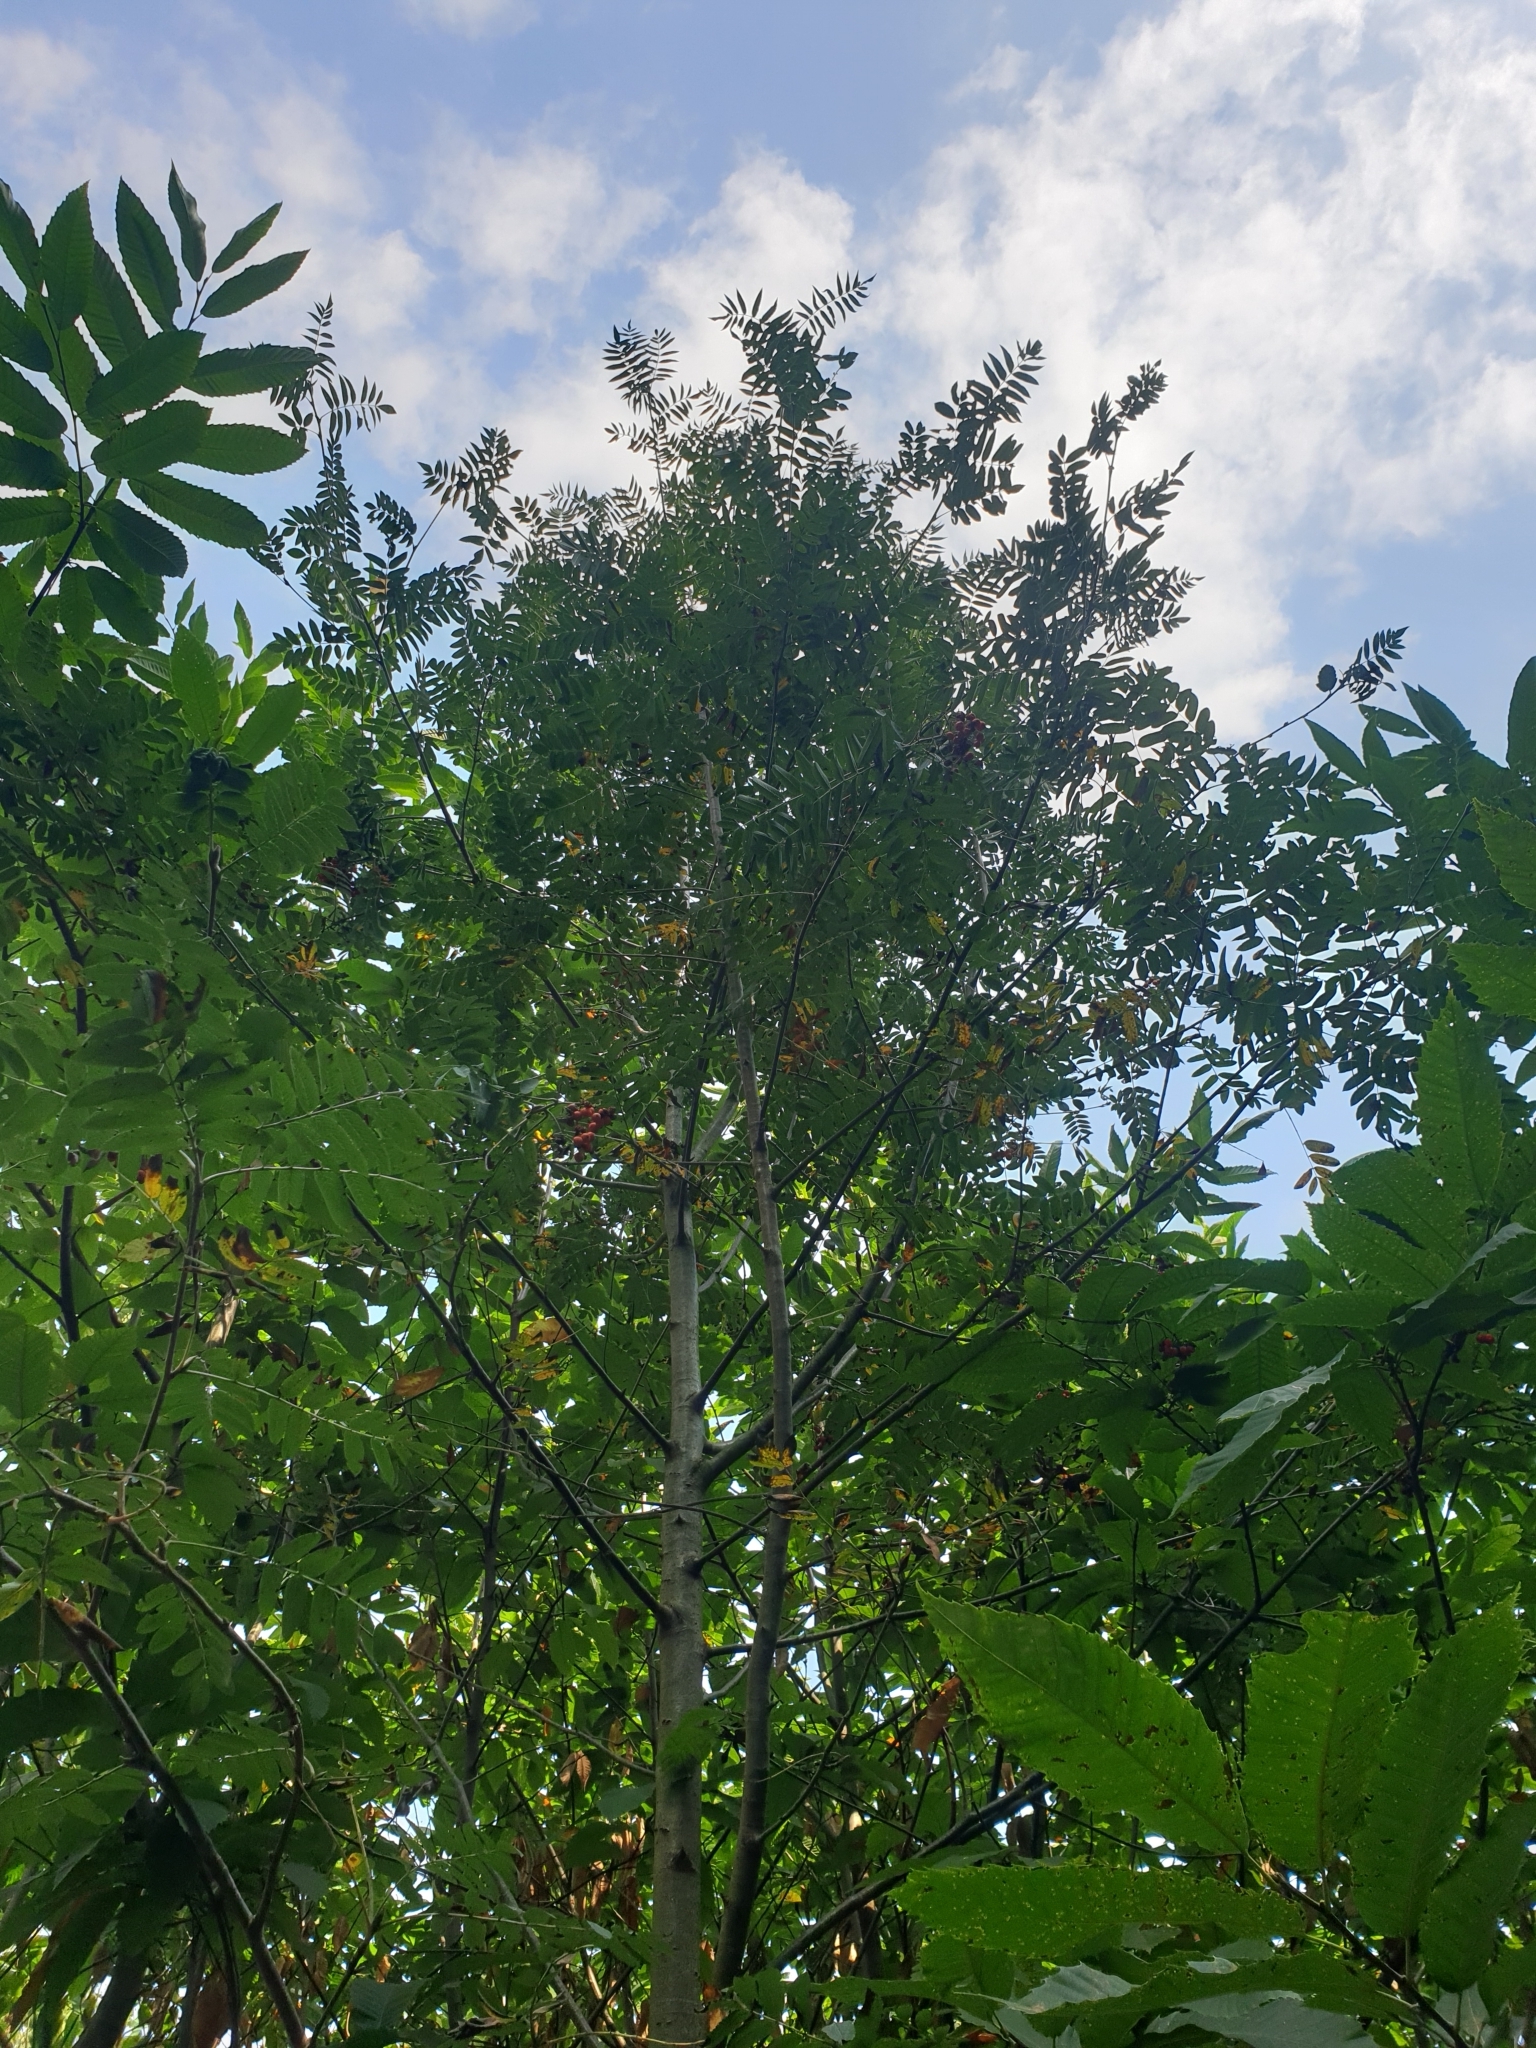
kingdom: Plantae
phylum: Tracheophyta
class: Magnoliopsida
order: Rosales
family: Rosaceae
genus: Sorbus
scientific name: Sorbus aucuparia
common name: Rowan
